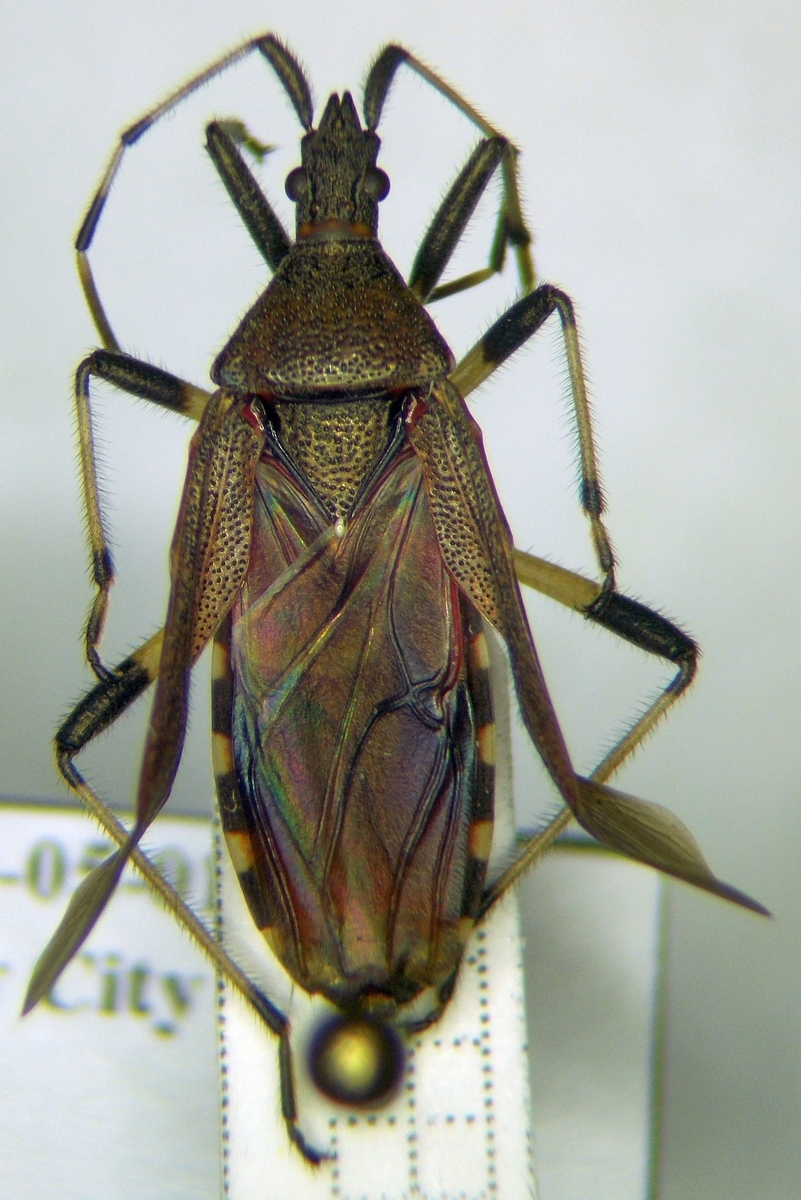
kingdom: Animalia
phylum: Arthropoda
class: Insecta
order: Hemiptera
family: Stenocephalidae
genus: Dicranocephalus
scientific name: Dicranocephalus albipes
